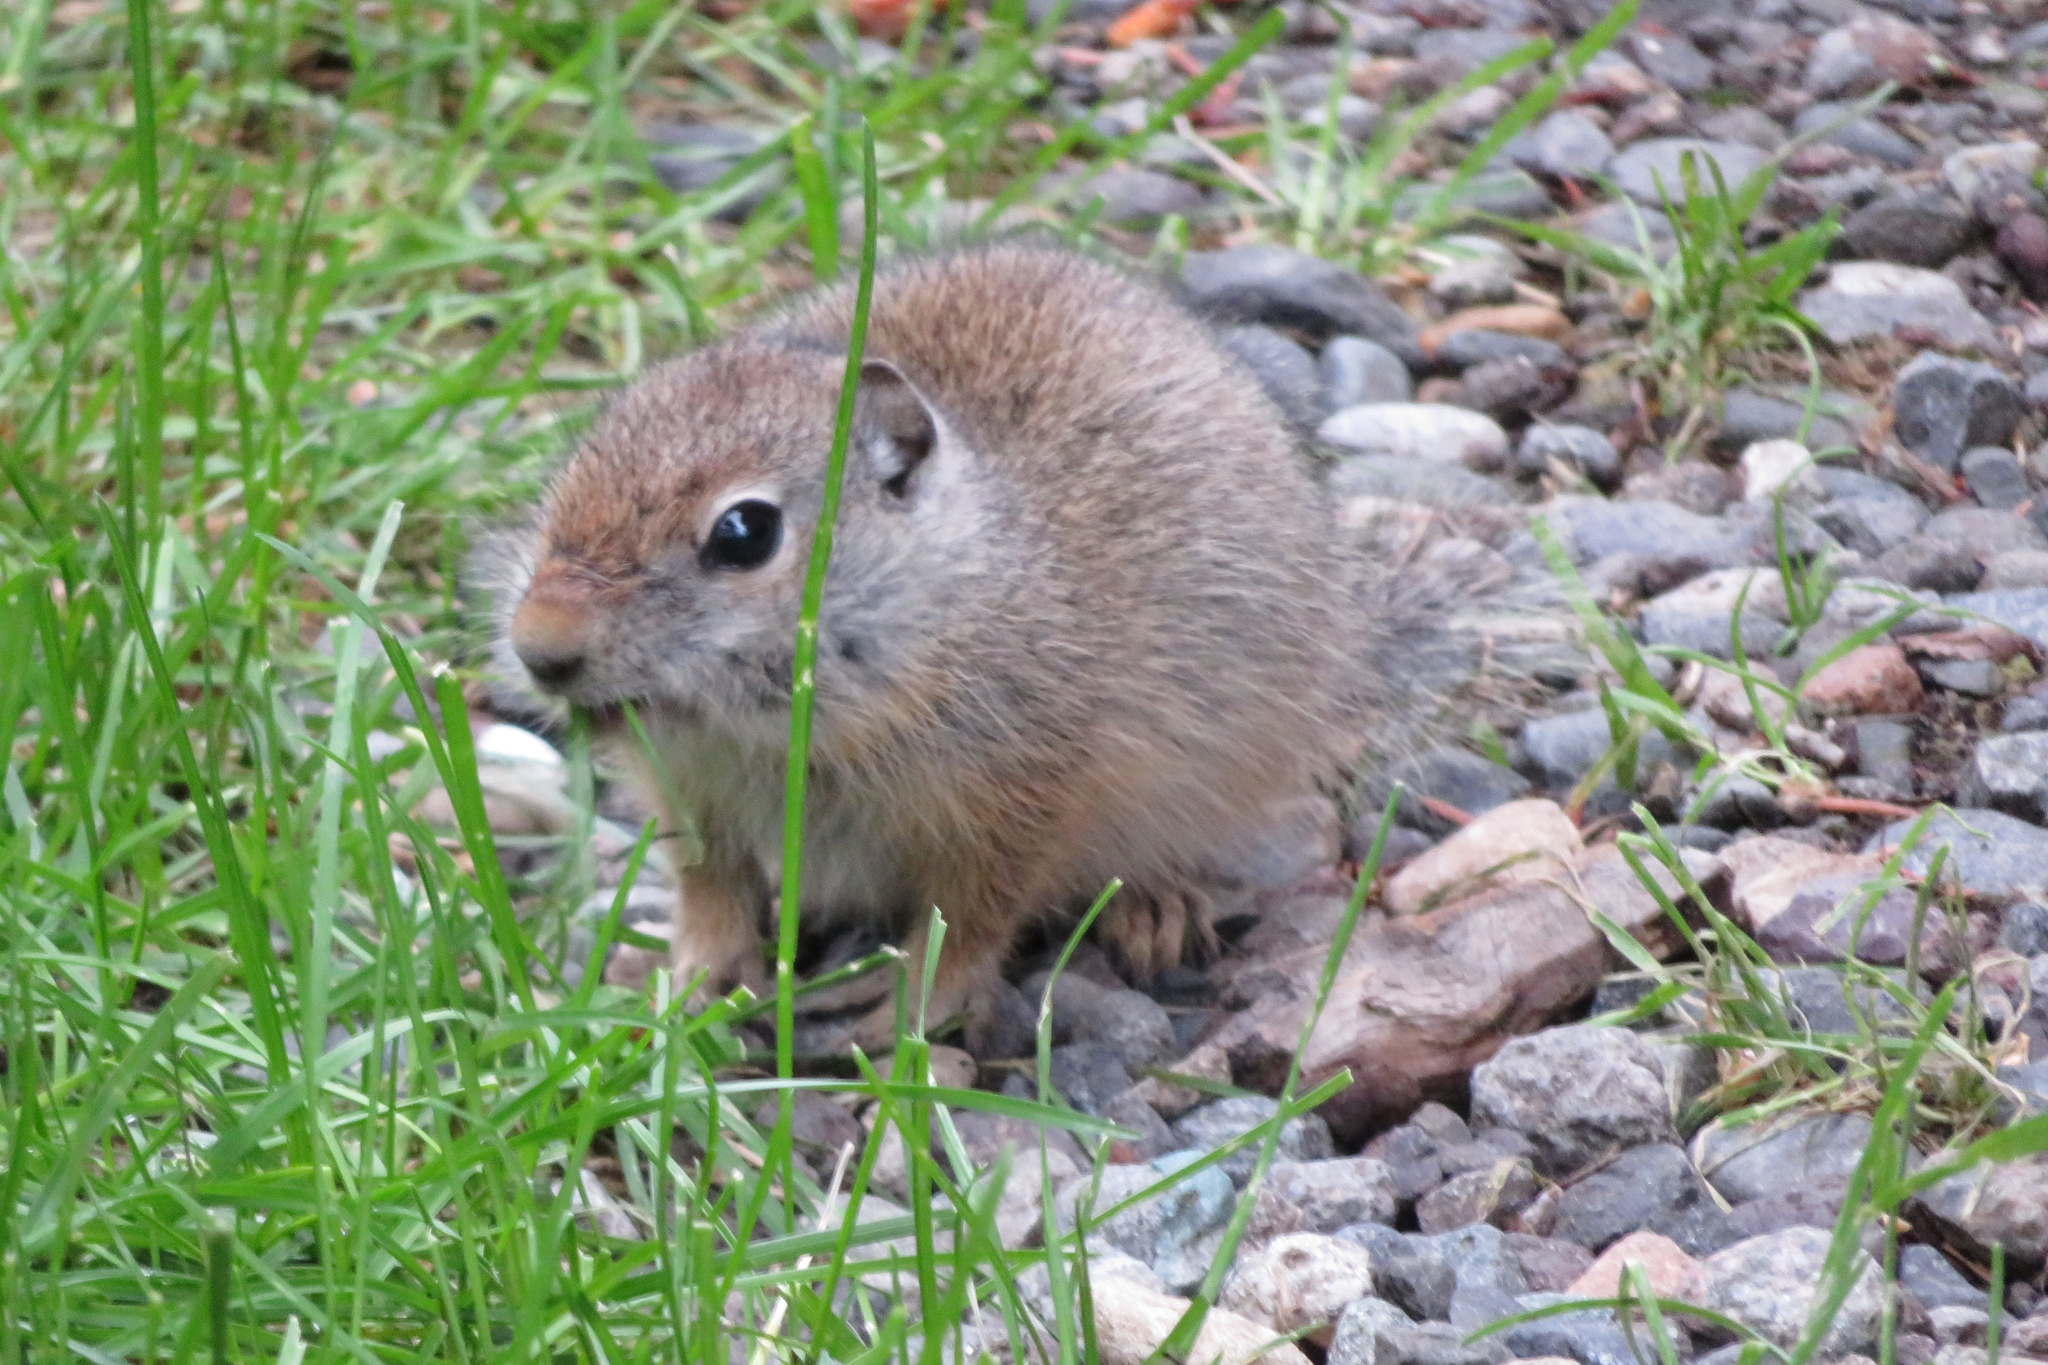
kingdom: Animalia
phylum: Chordata
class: Mammalia
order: Rodentia
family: Sciuridae
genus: Urocitellus
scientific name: Urocitellus armatus
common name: Uinta ground squirrel
